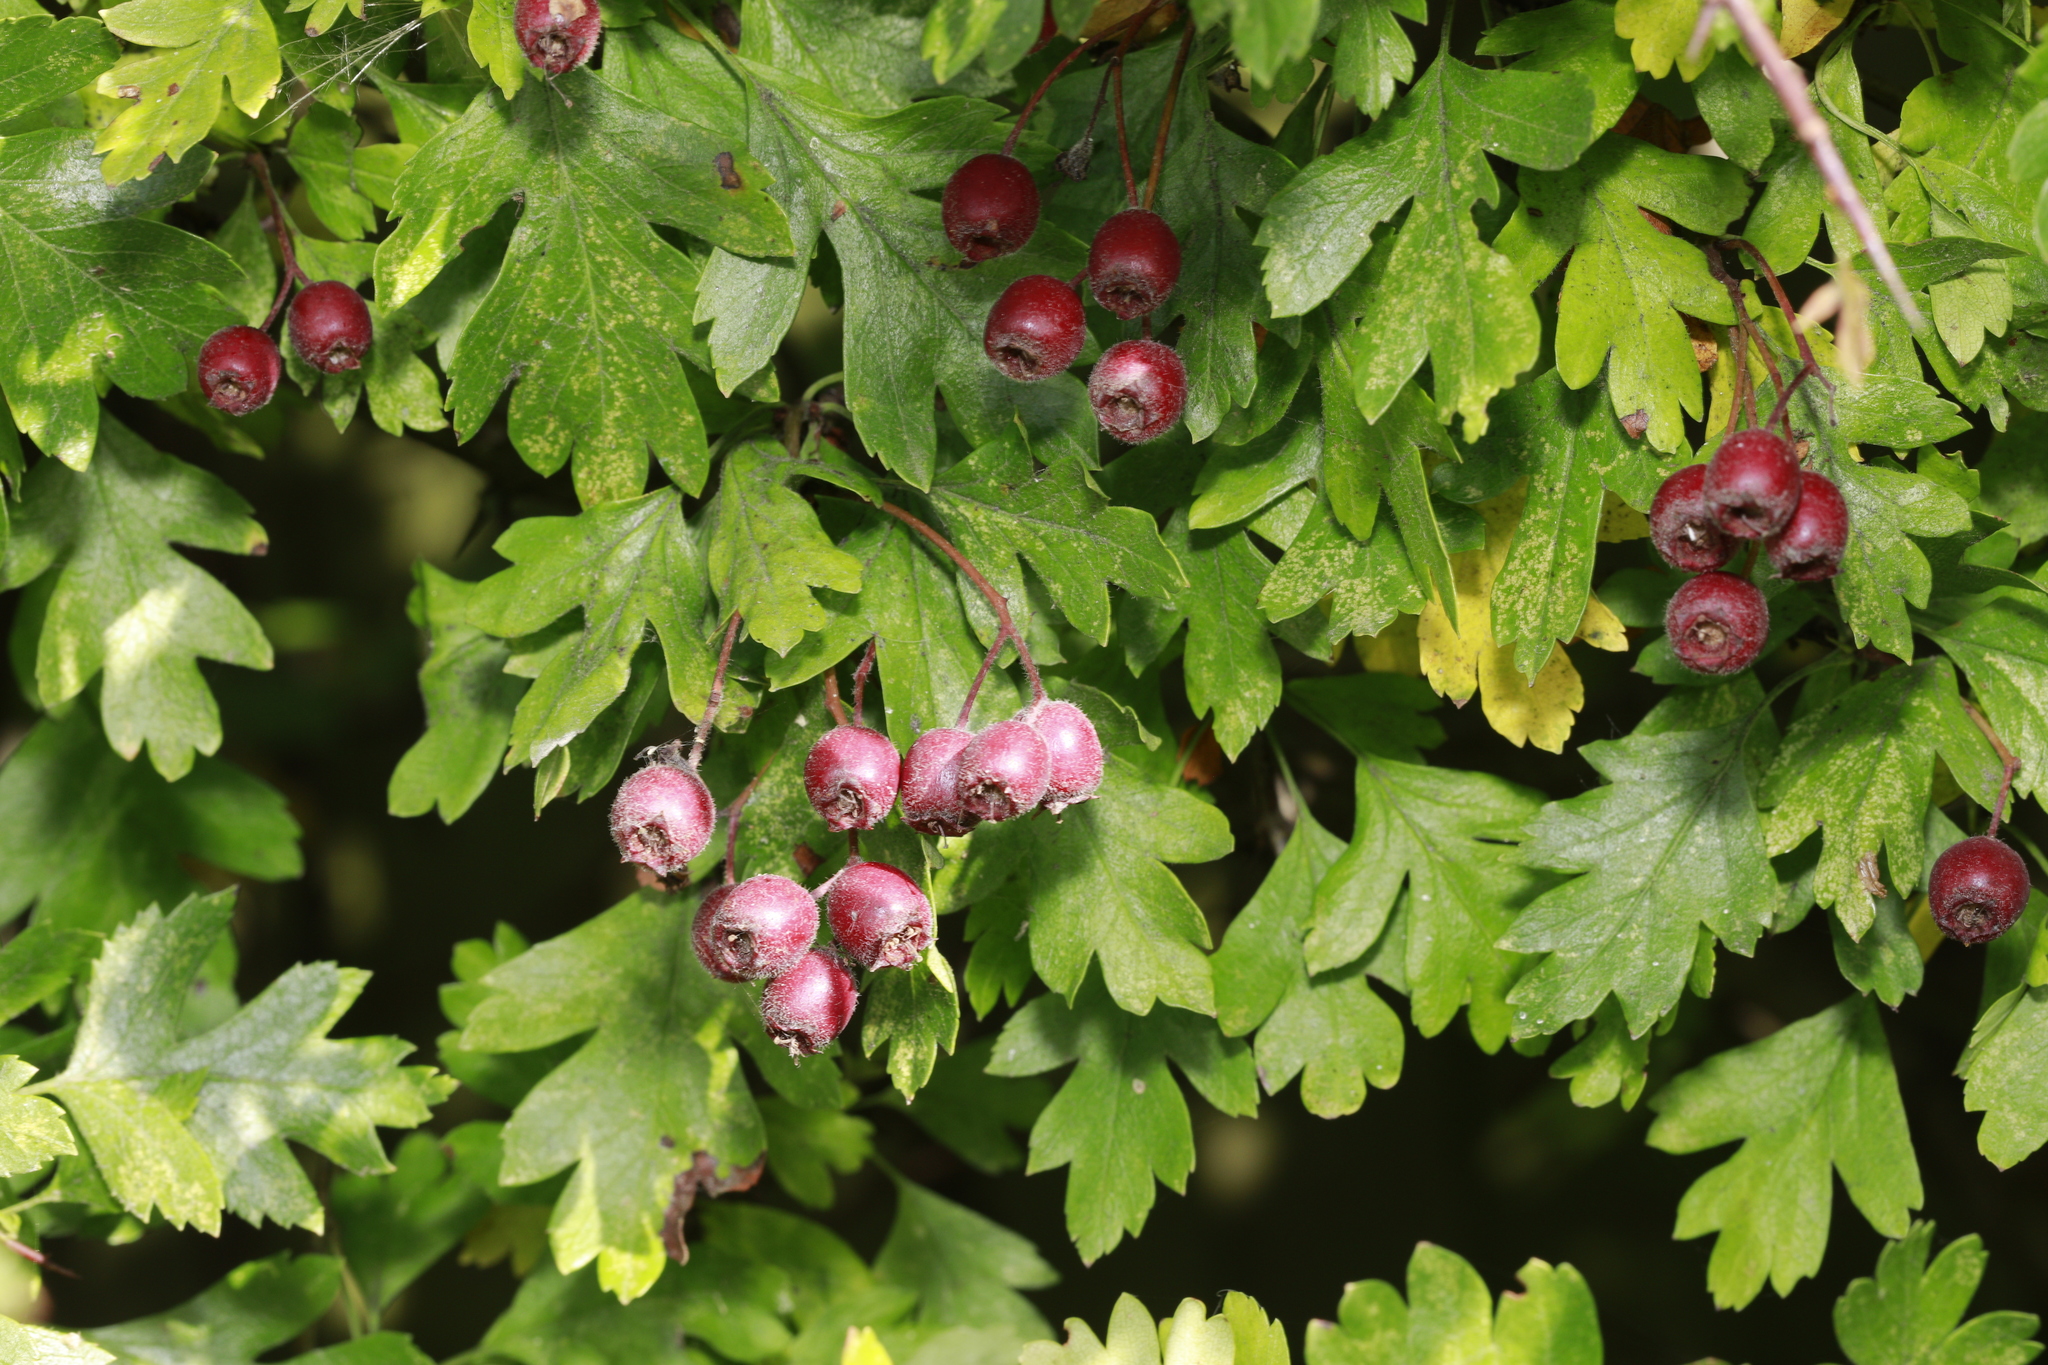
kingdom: Plantae
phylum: Tracheophyta
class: Magnoliopsida
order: Rosales
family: Rosaceae
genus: Crataegus
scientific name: Crataegus monogyna
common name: Hawthorn
